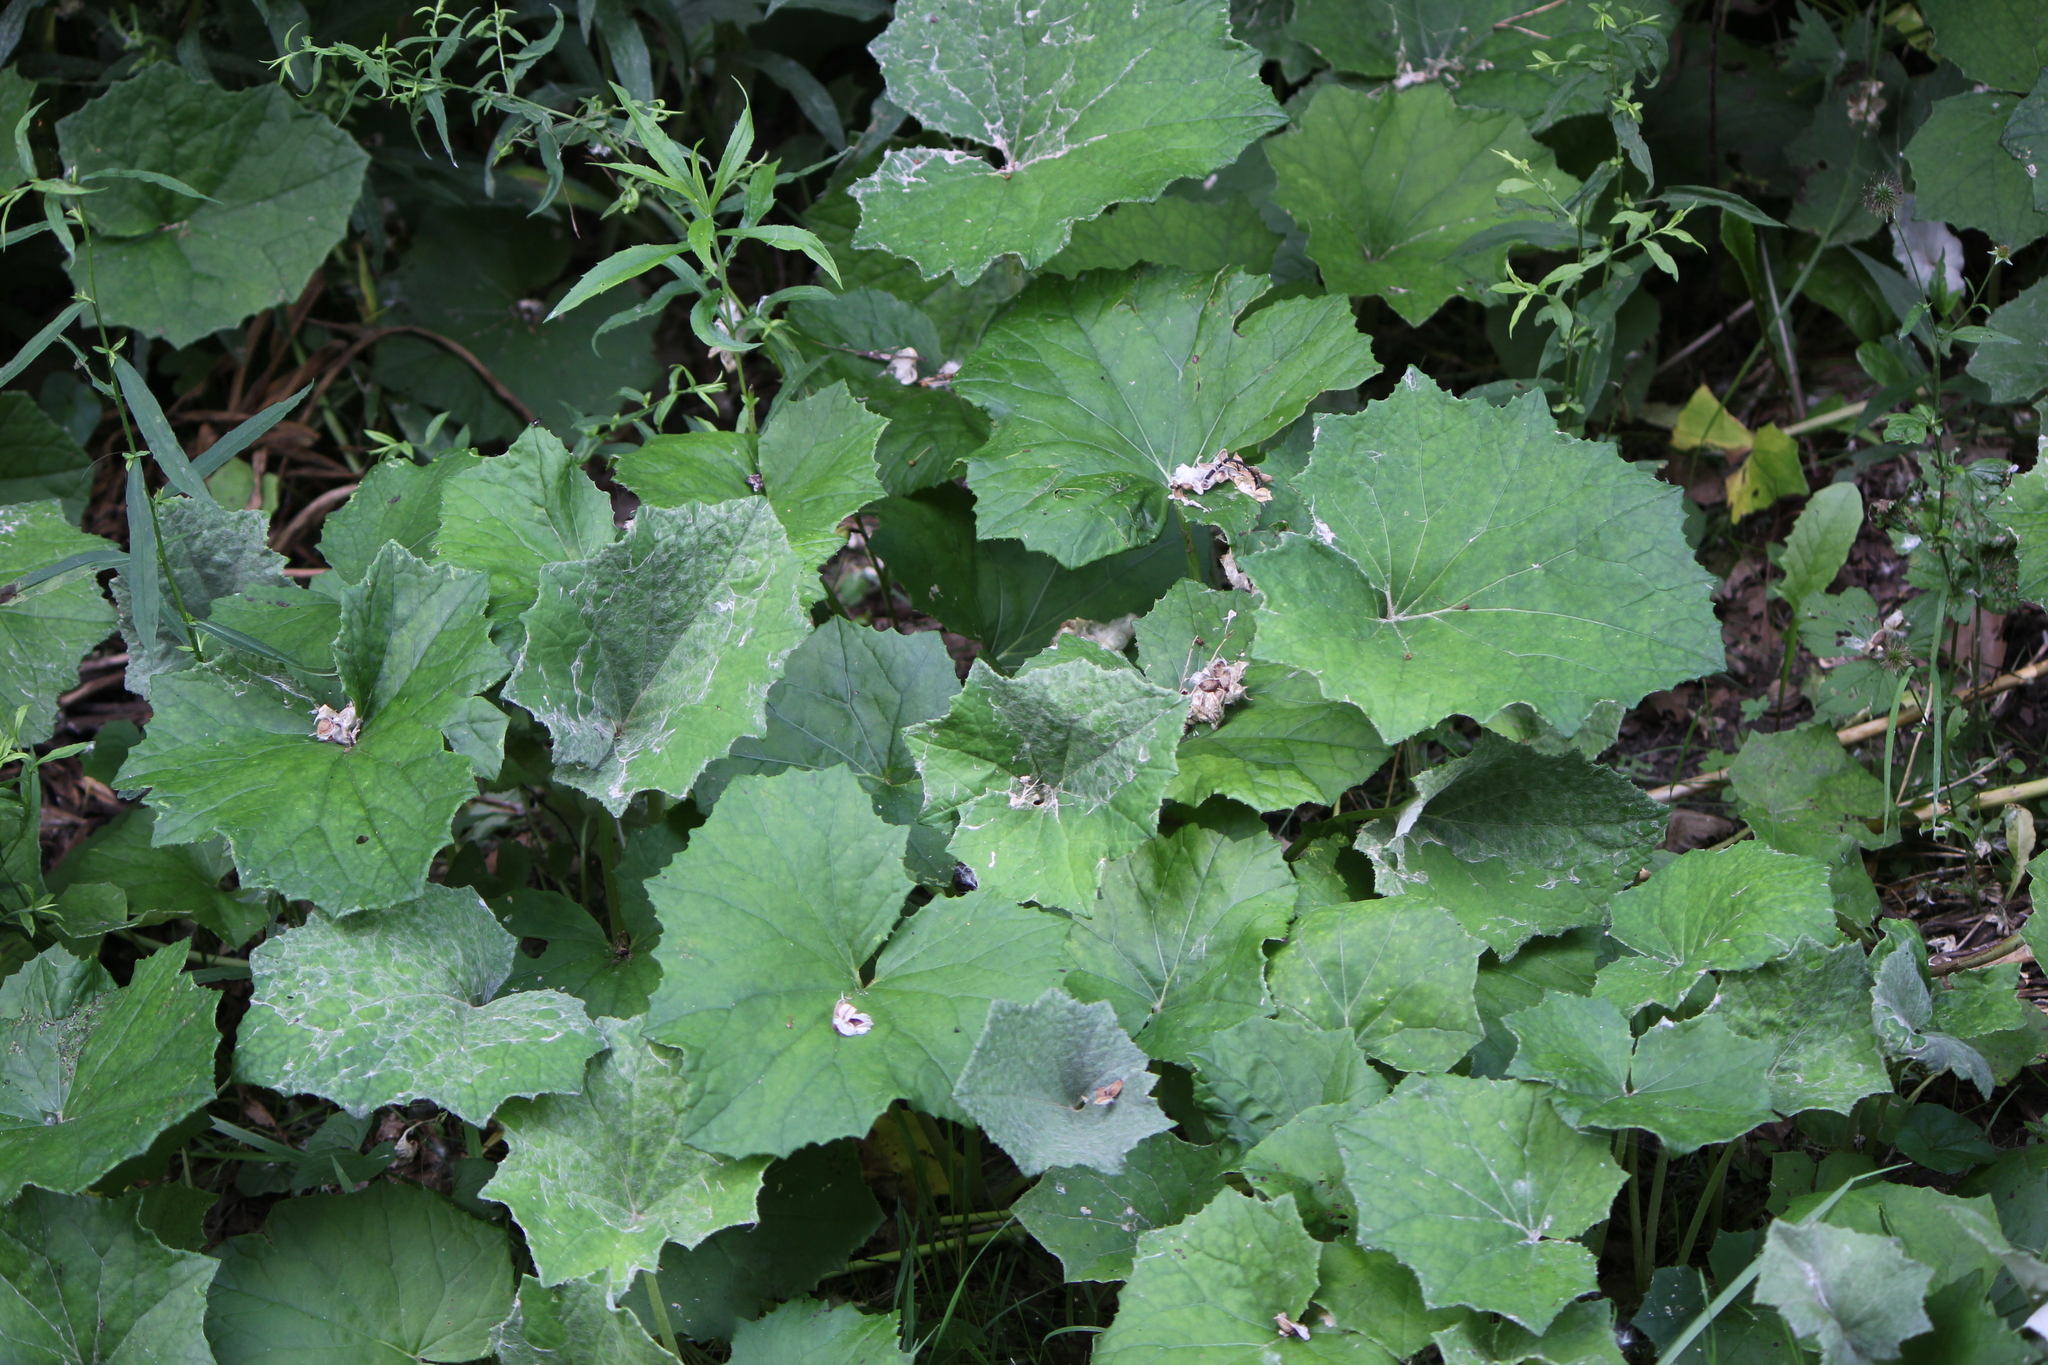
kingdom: Plantae
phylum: Tracheophyta
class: Magnoliopsida
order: Asterales
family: Asteraceae
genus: Tussilago
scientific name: Tussilago farfara
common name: Coltsfoot
